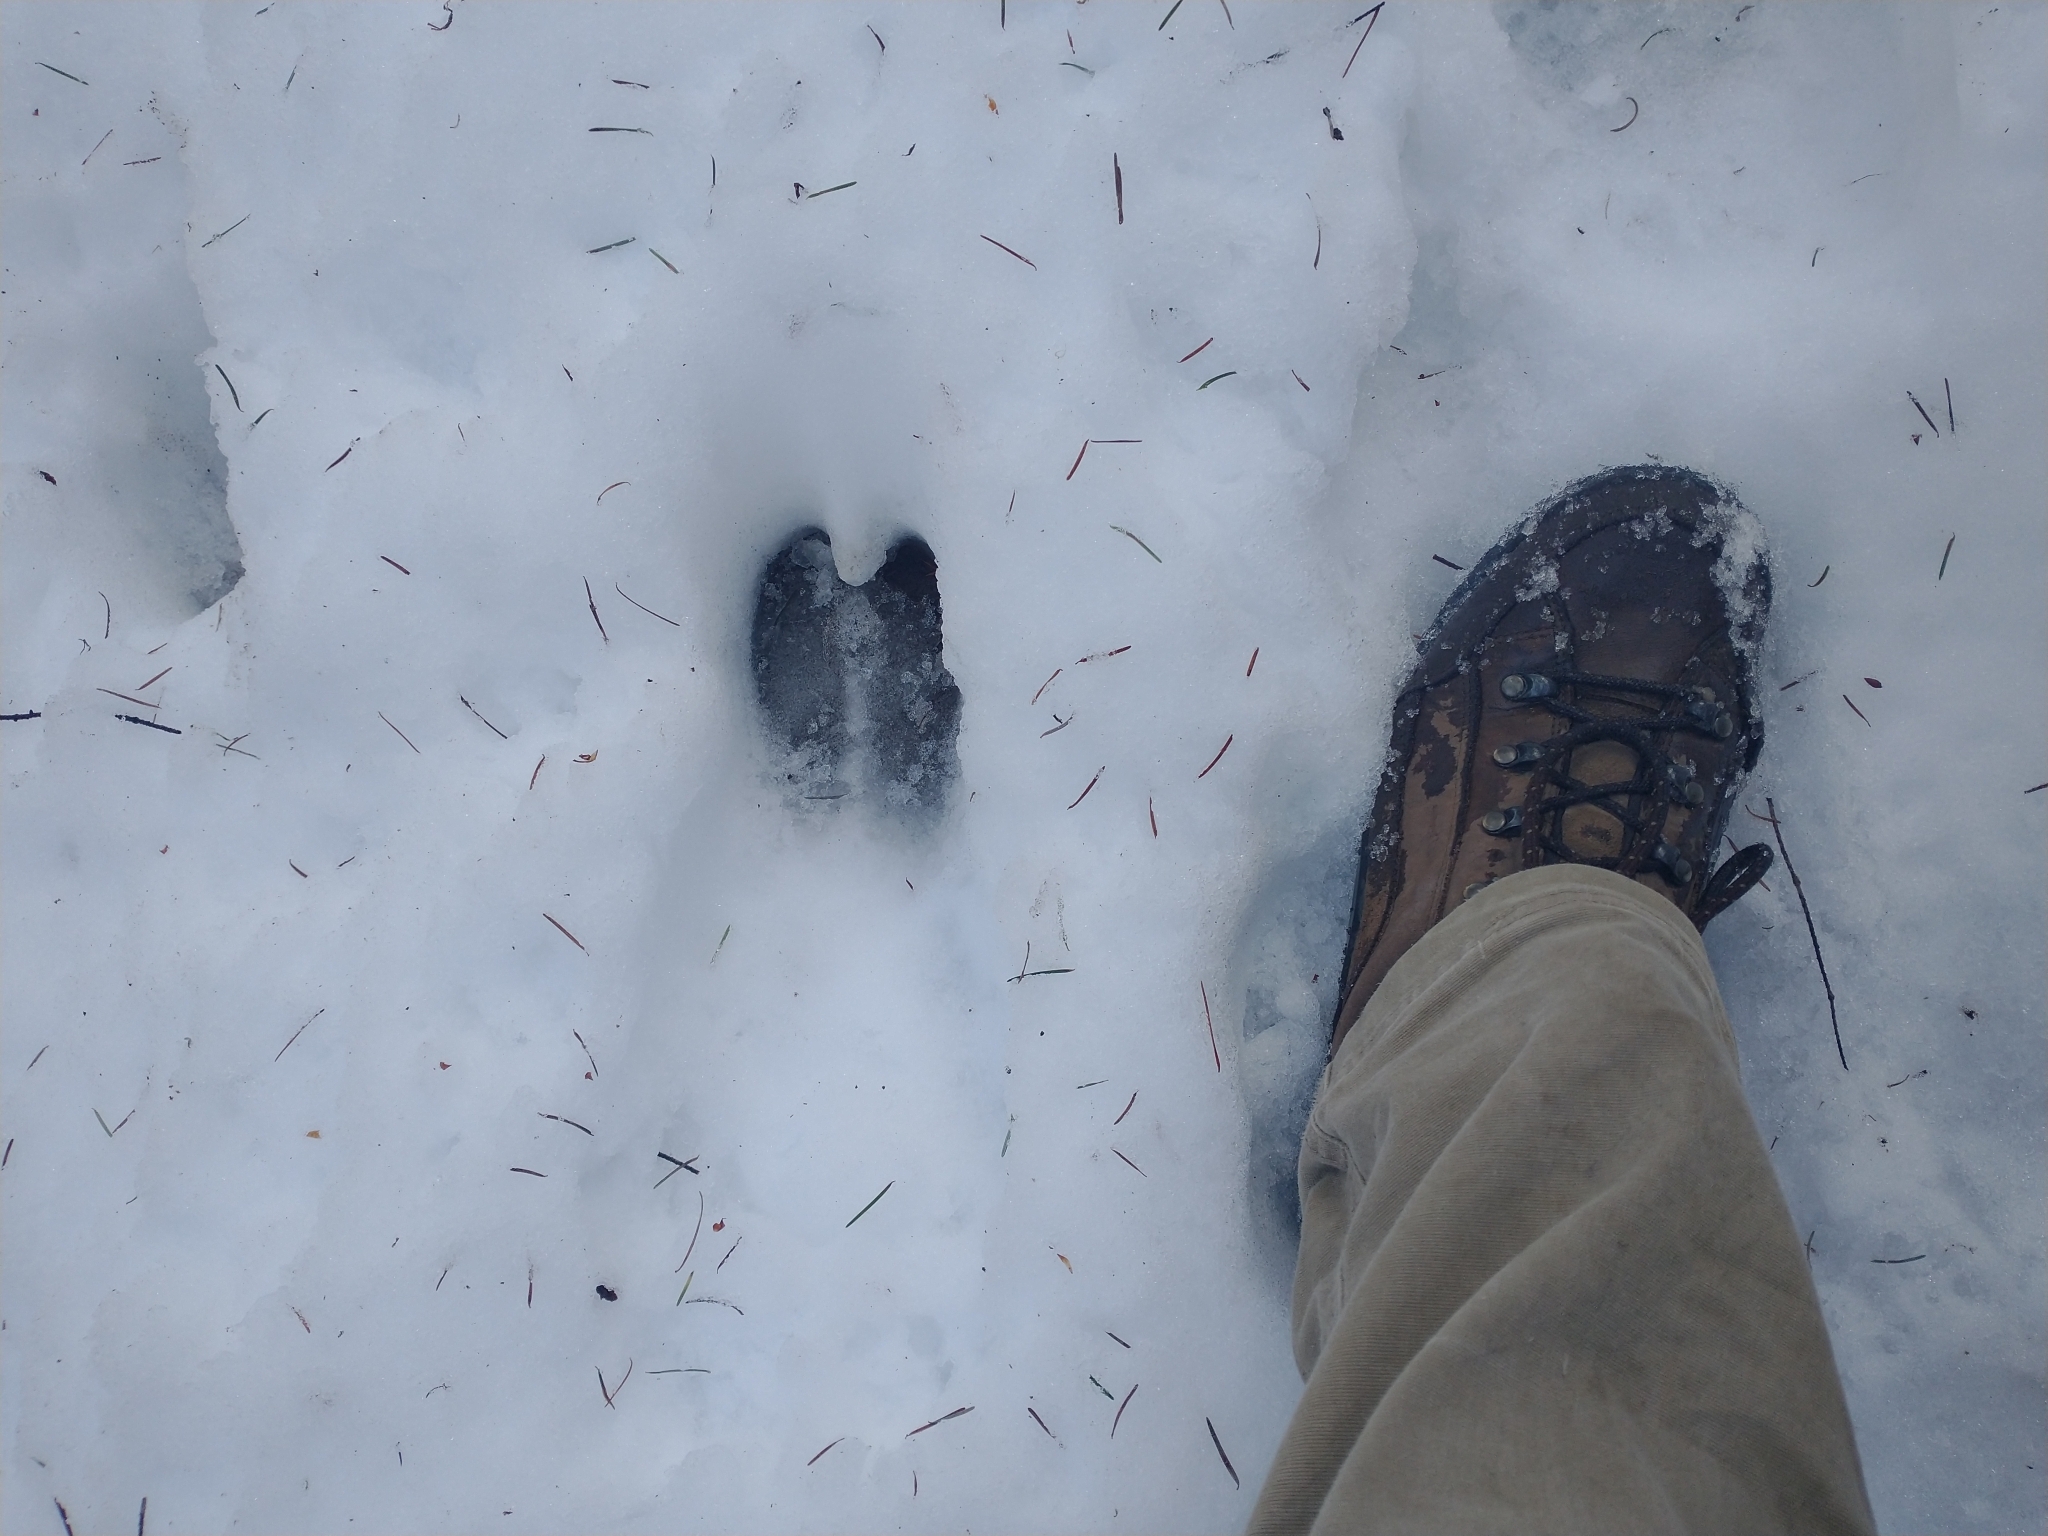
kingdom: Animalia
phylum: Chordata
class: Mammalia
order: Artiodactyla
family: Cervidae
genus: Cervus
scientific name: Cervus elaphus
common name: Red deer
